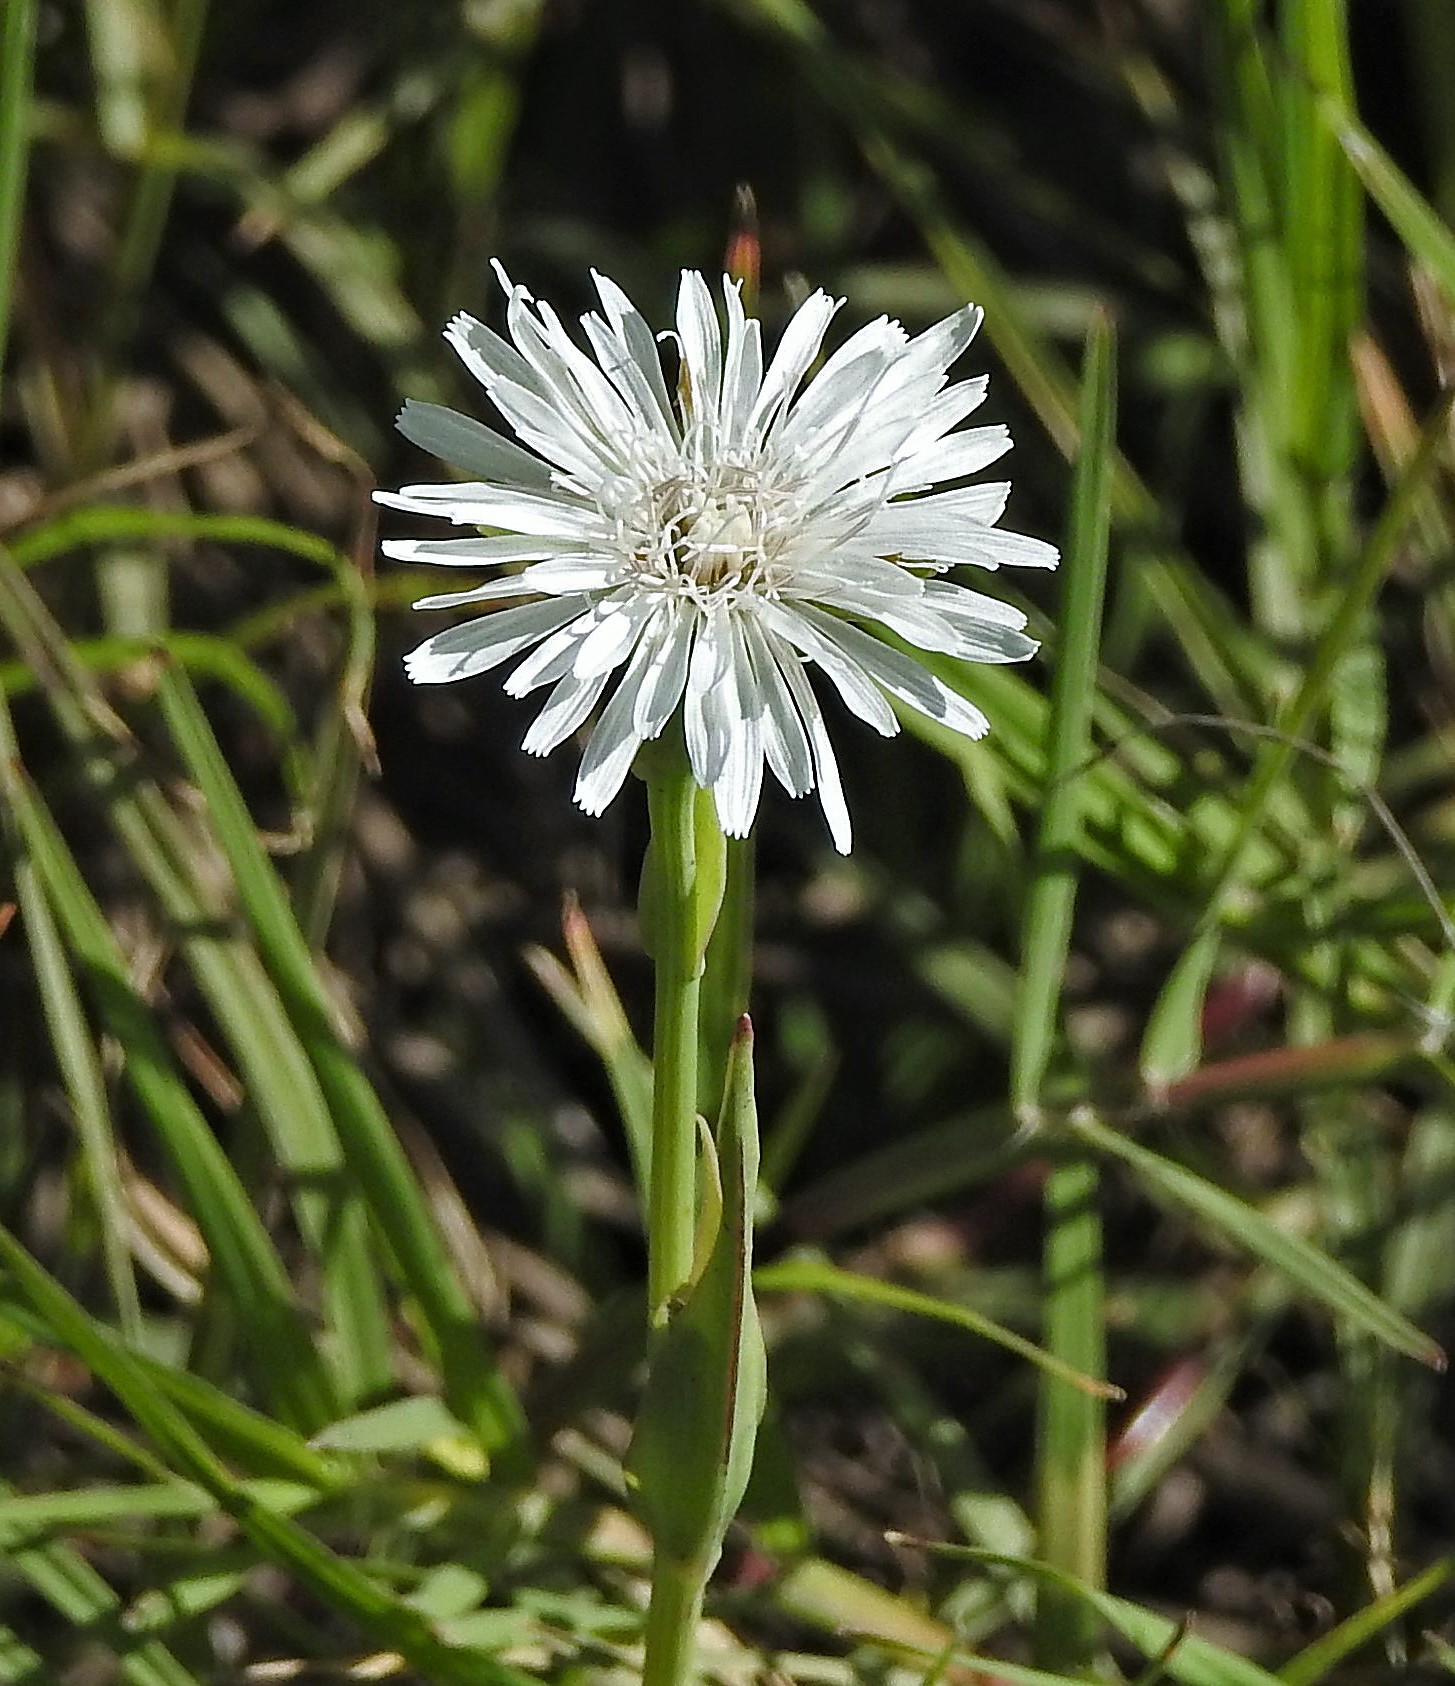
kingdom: Plantae
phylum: Tracheophyta
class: Magnoliopsida
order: Asterales
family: Asteraceae
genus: Picrosia
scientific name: Picrosia longifolia
